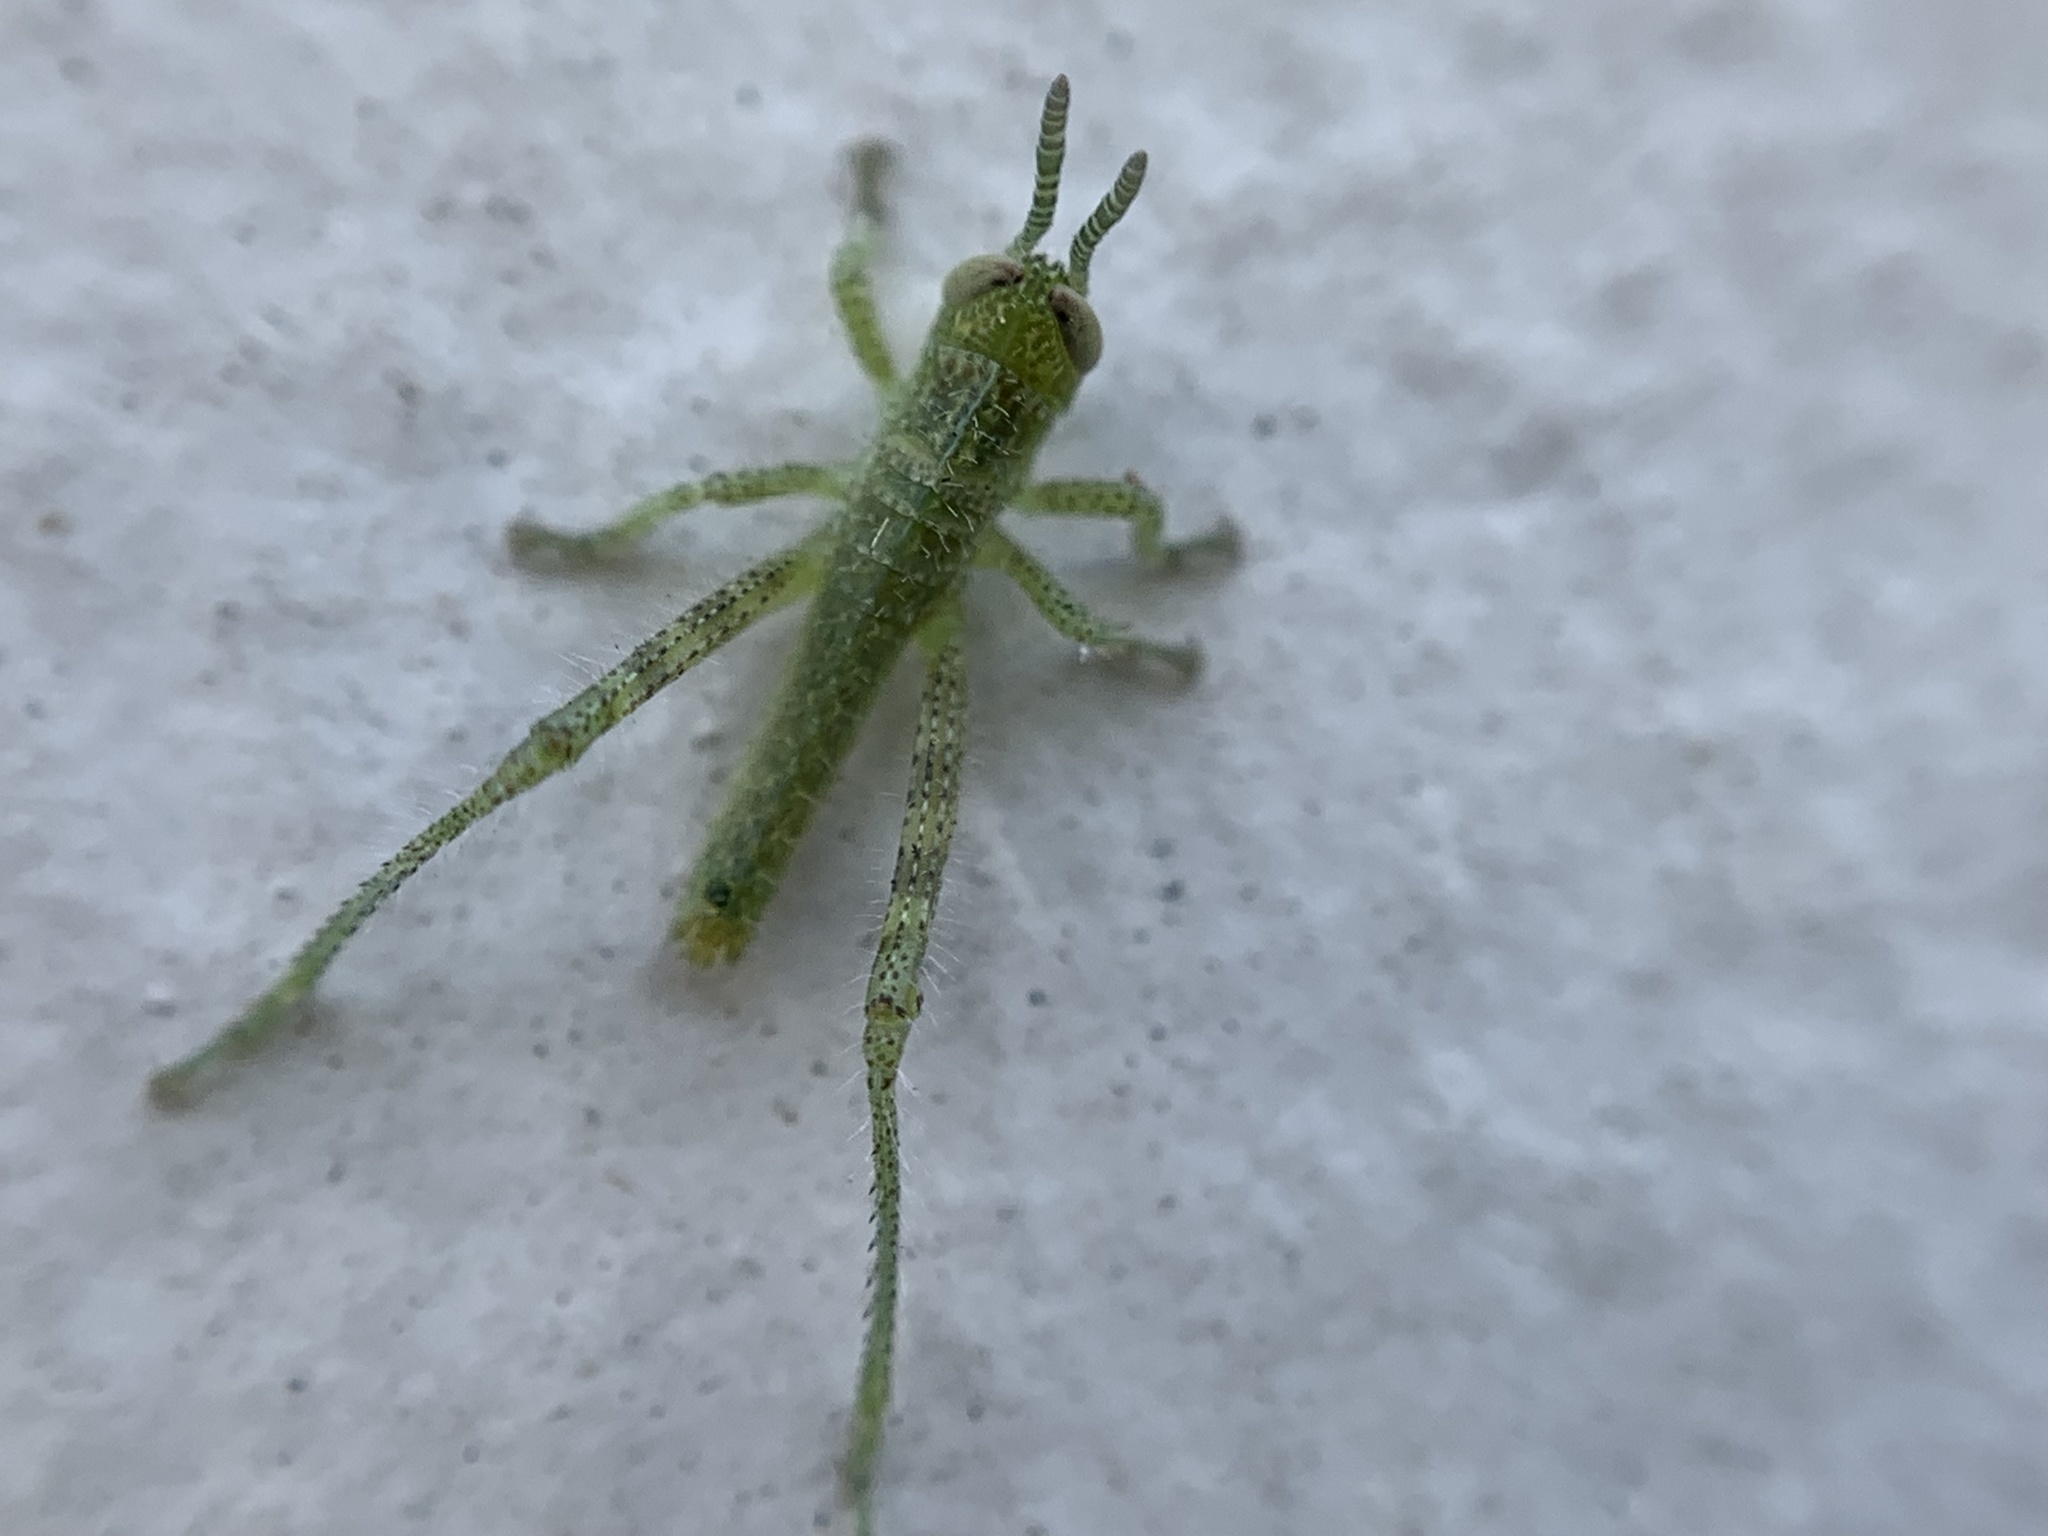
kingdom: Animalia
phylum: Arthropoda
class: Insecta
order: Orthoptera
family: Acrididae
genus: Schistocerca
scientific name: Schistocerca nitens
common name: Vagrant grasshopper
